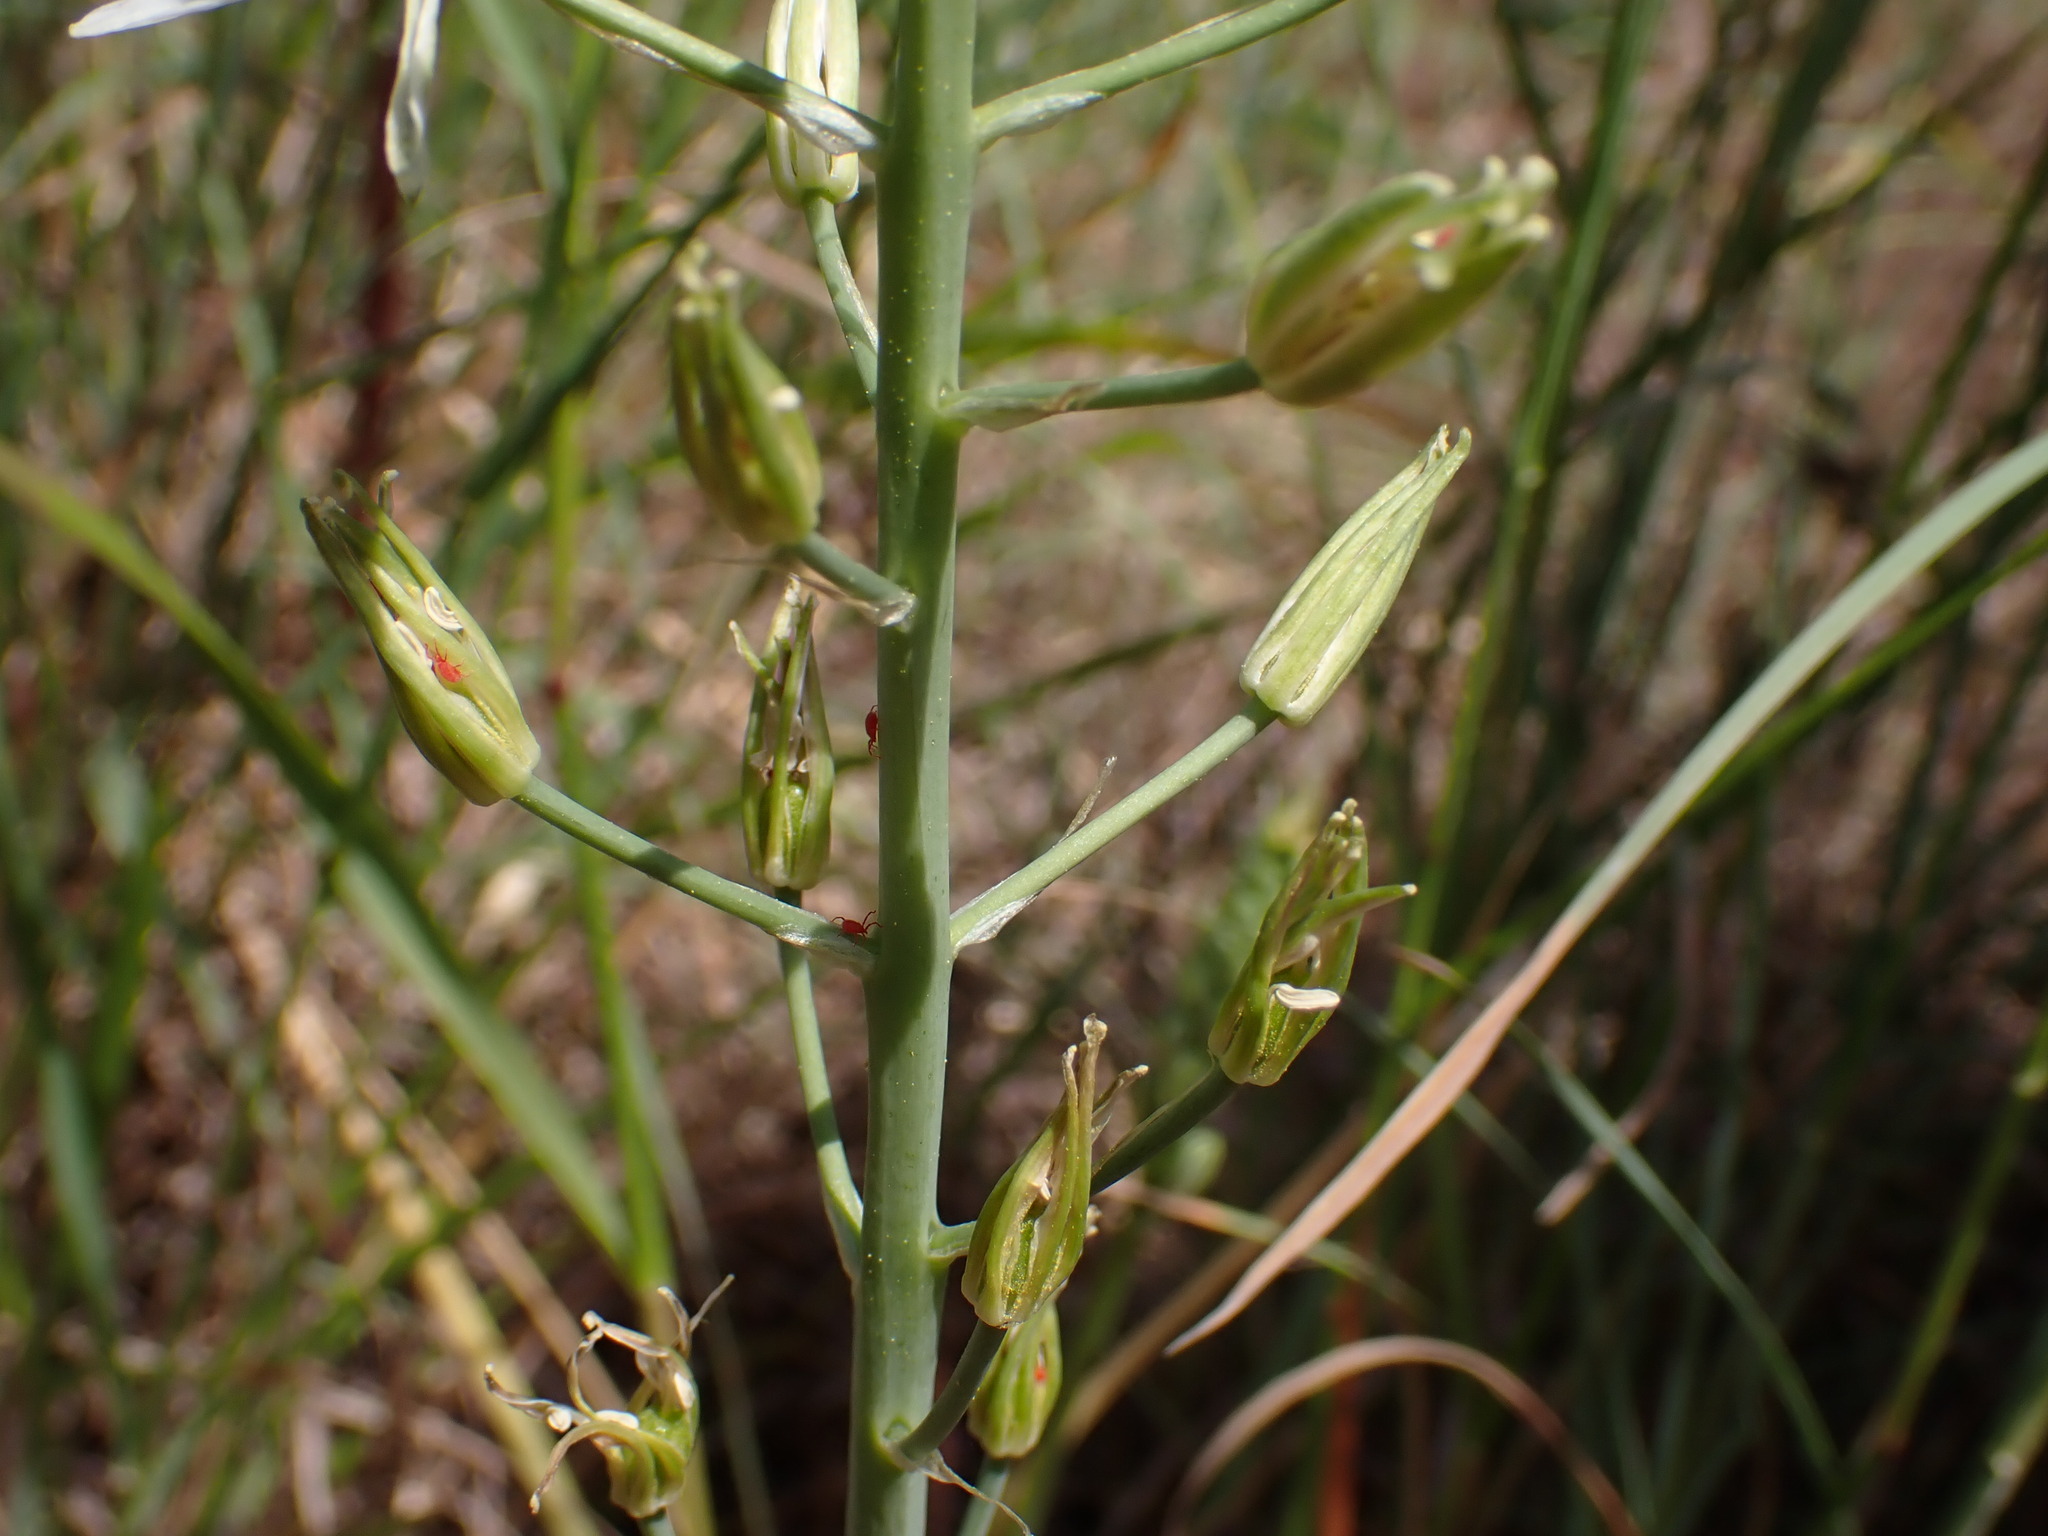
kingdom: Plantae
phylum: Tracheophyta
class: Liliopsida
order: Asparagales
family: Asparagaceae
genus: Ornithogalum
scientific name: Ornithogalum narbonense
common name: Bath-asparagus
